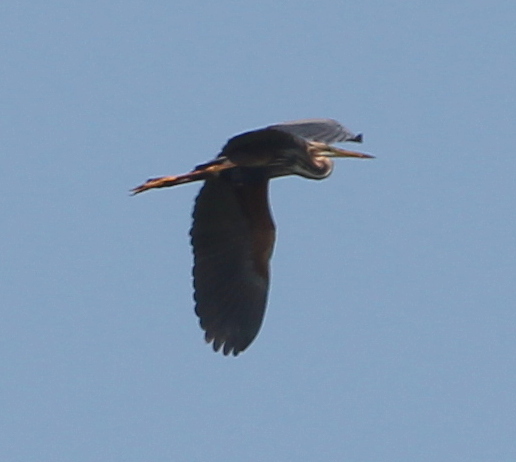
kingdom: Animalia
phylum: Chordata
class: Aves
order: Pelecaniformes
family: Ardeidae
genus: Ardea
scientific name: Ardea purpurea
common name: Purple heron
